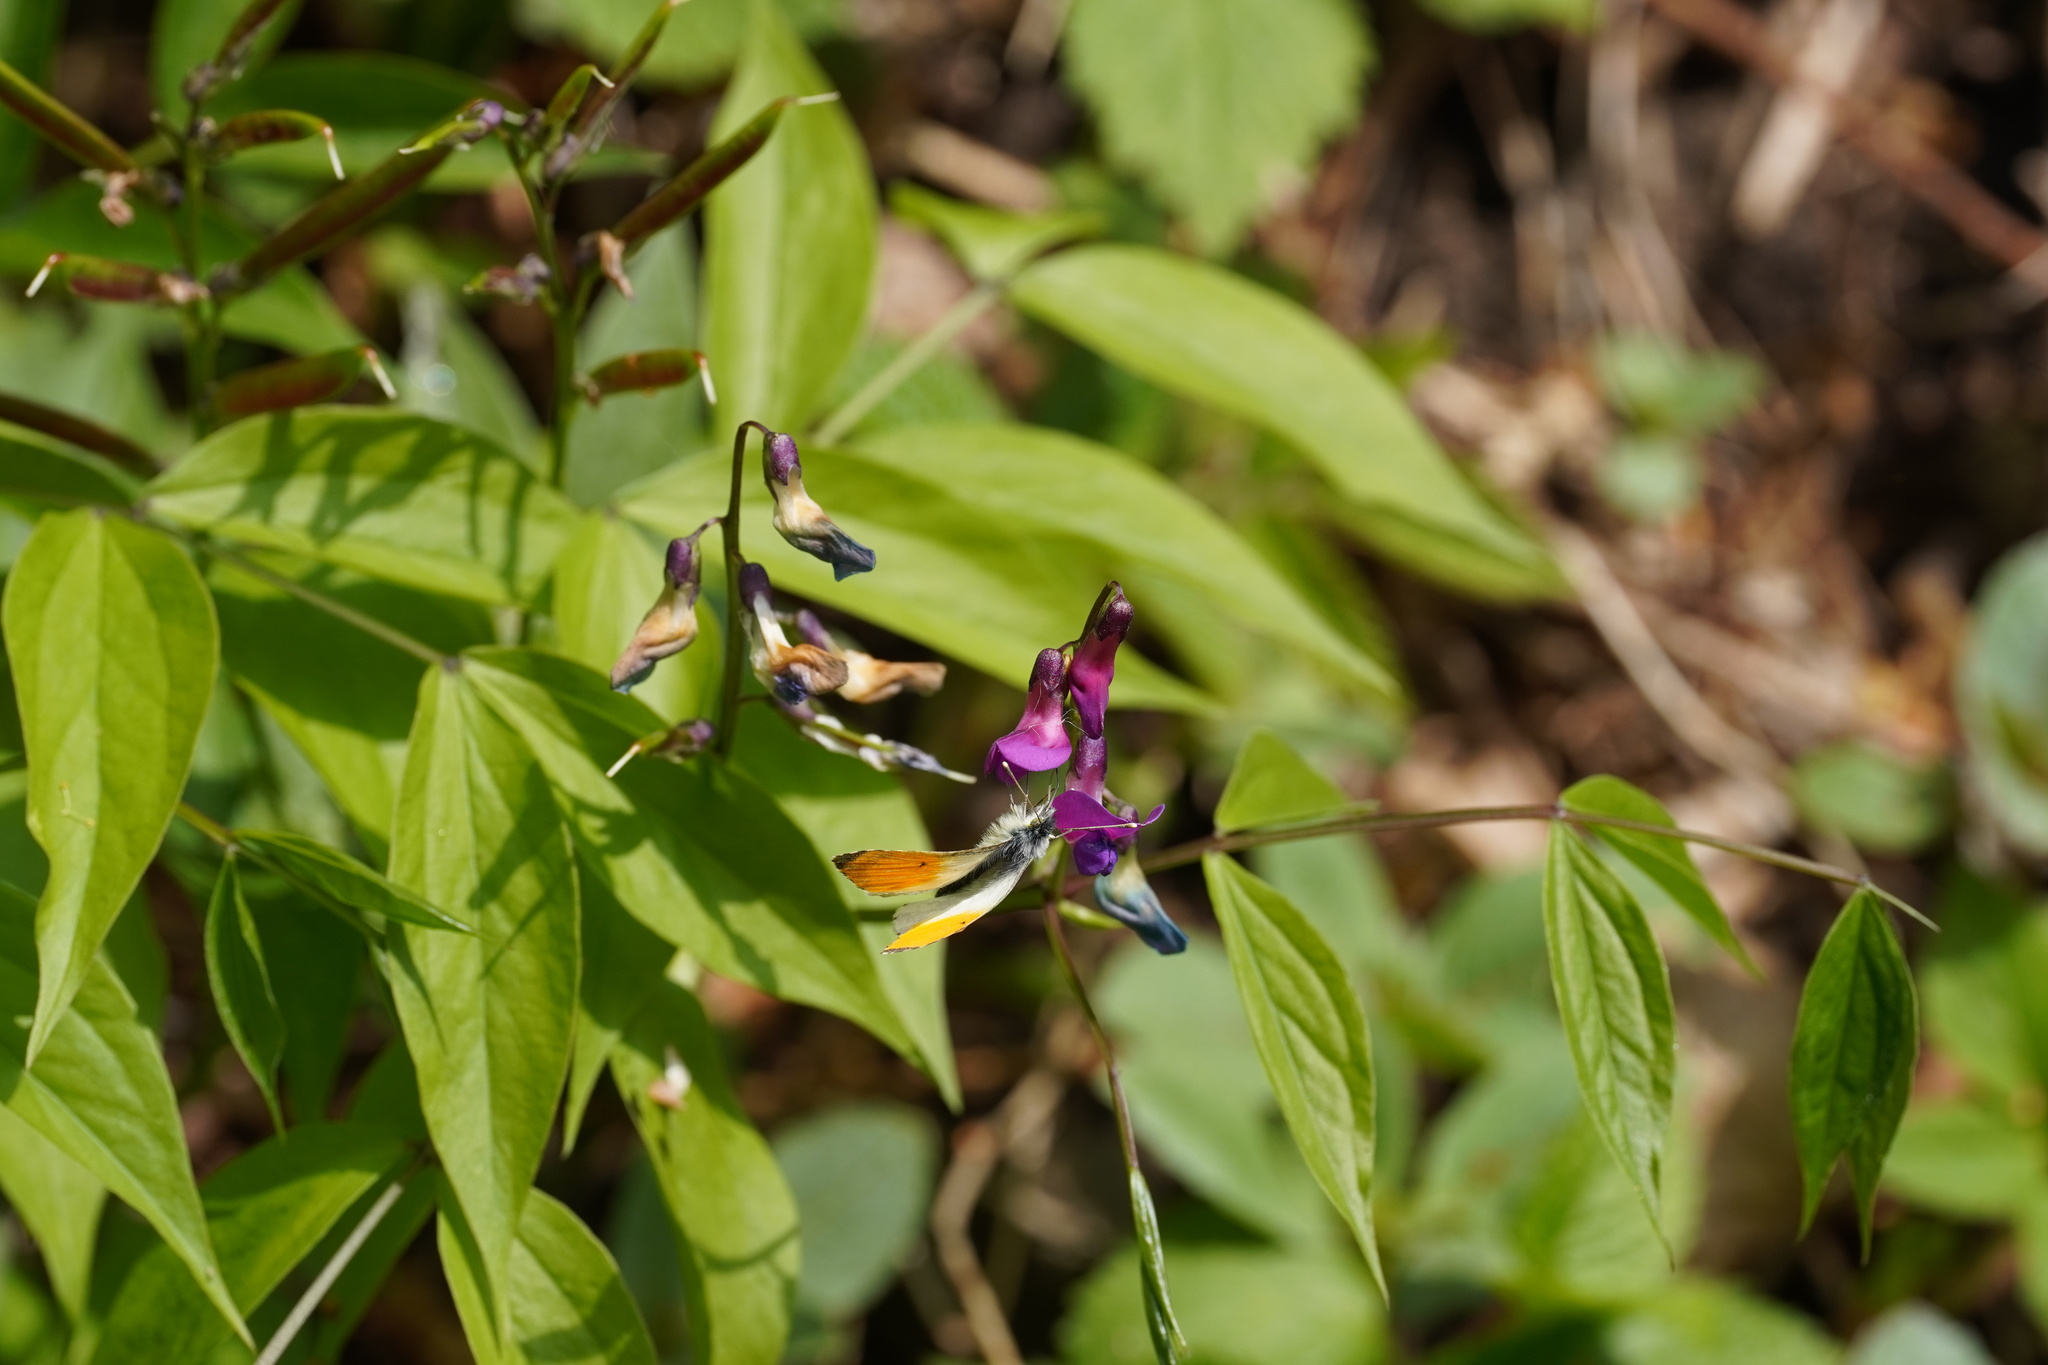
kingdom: Plantae
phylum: Tracheophyta
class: Magnoliopsida
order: Fabales
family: Fabaceae
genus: Lathyrus
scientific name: Lathyrus vernus
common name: Spring pea
